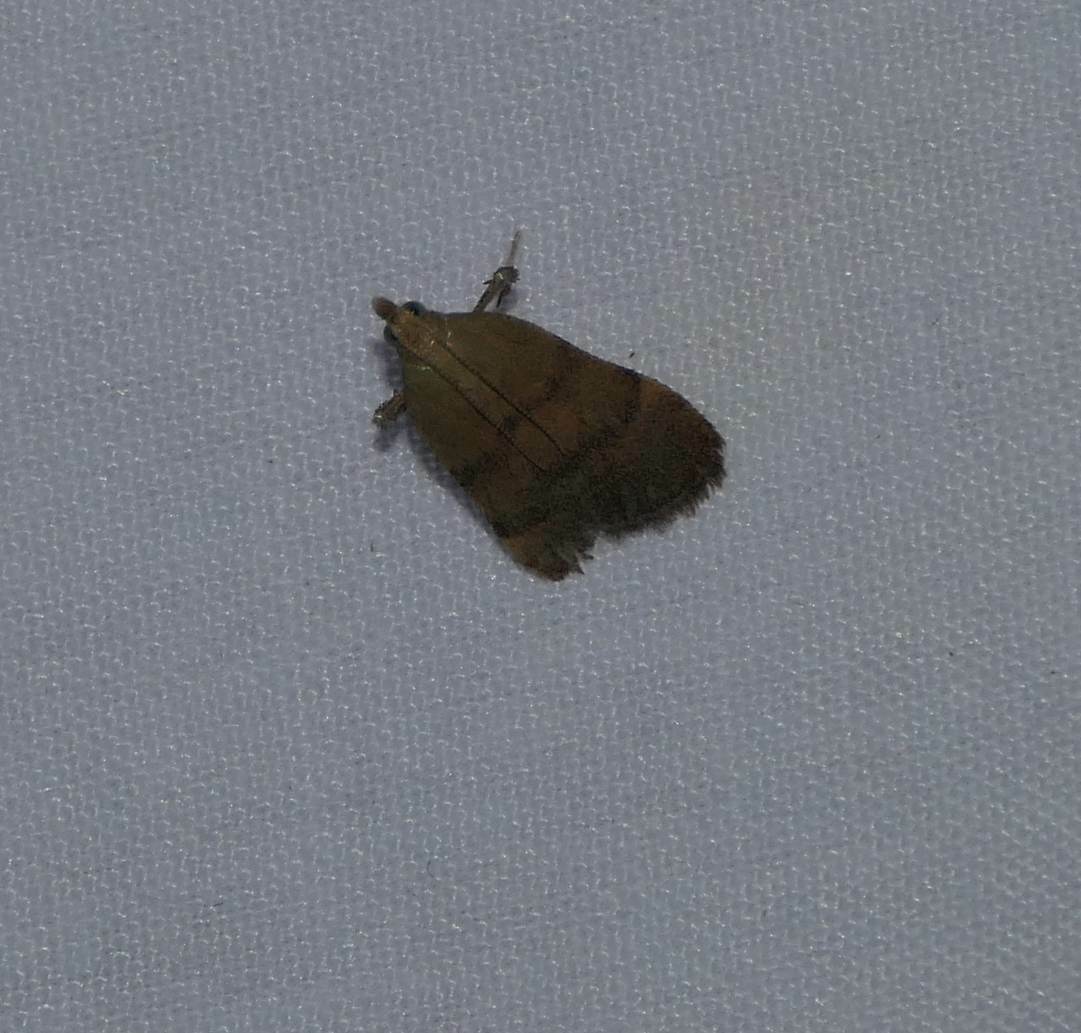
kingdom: Animalia
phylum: Arthropoda
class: Insecta
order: Lepidoptera
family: Pyralidae
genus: Condylolomia
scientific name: Condylolomia participialis
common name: Drab condylolomia moth
